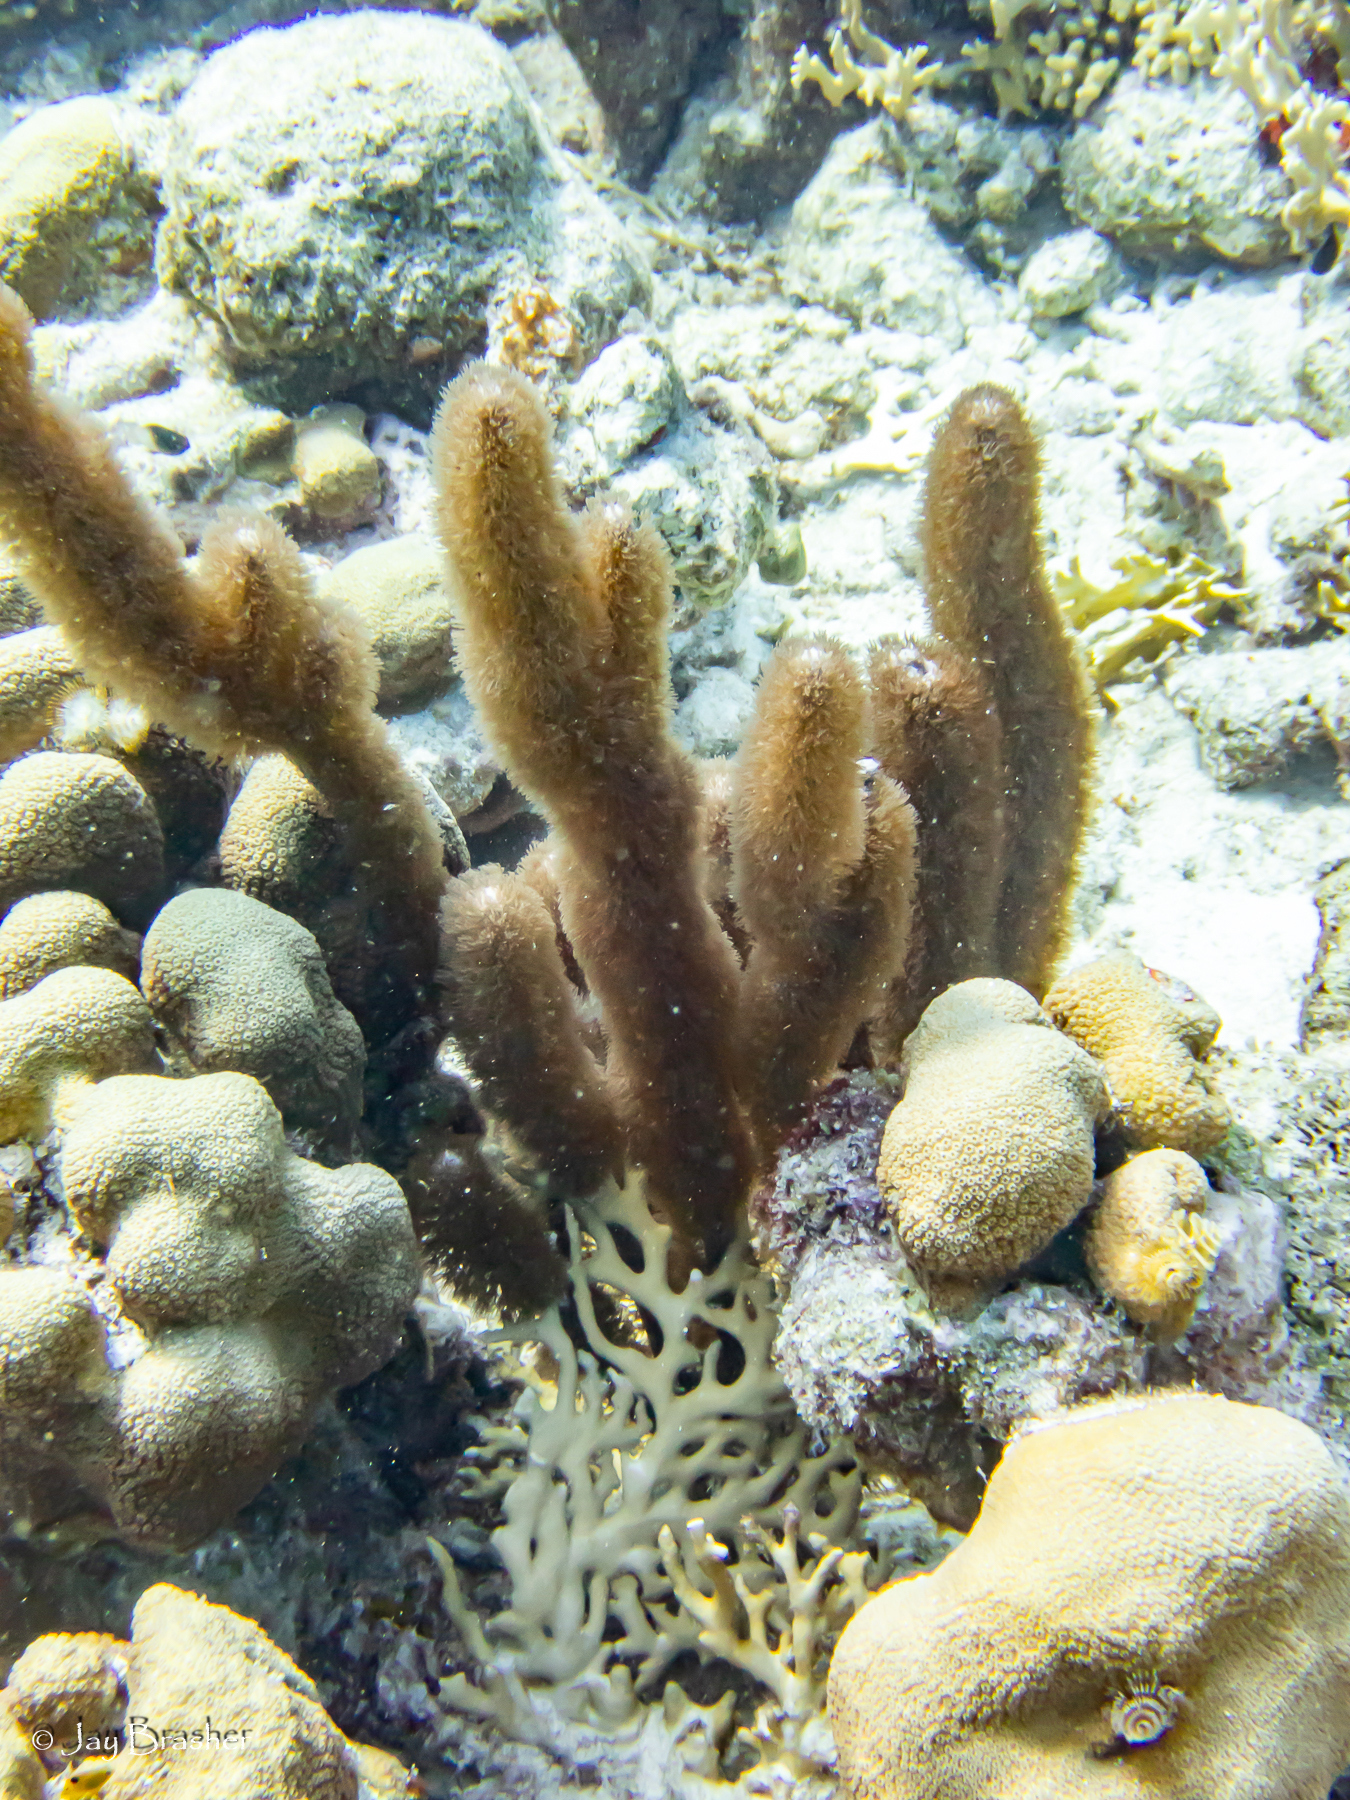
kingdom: Animalia
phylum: Cnidaria
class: Anthozoa
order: Scleractinia
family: Merulinidae
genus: Orbicella
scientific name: Orbicella annularis
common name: Boulder star coral
